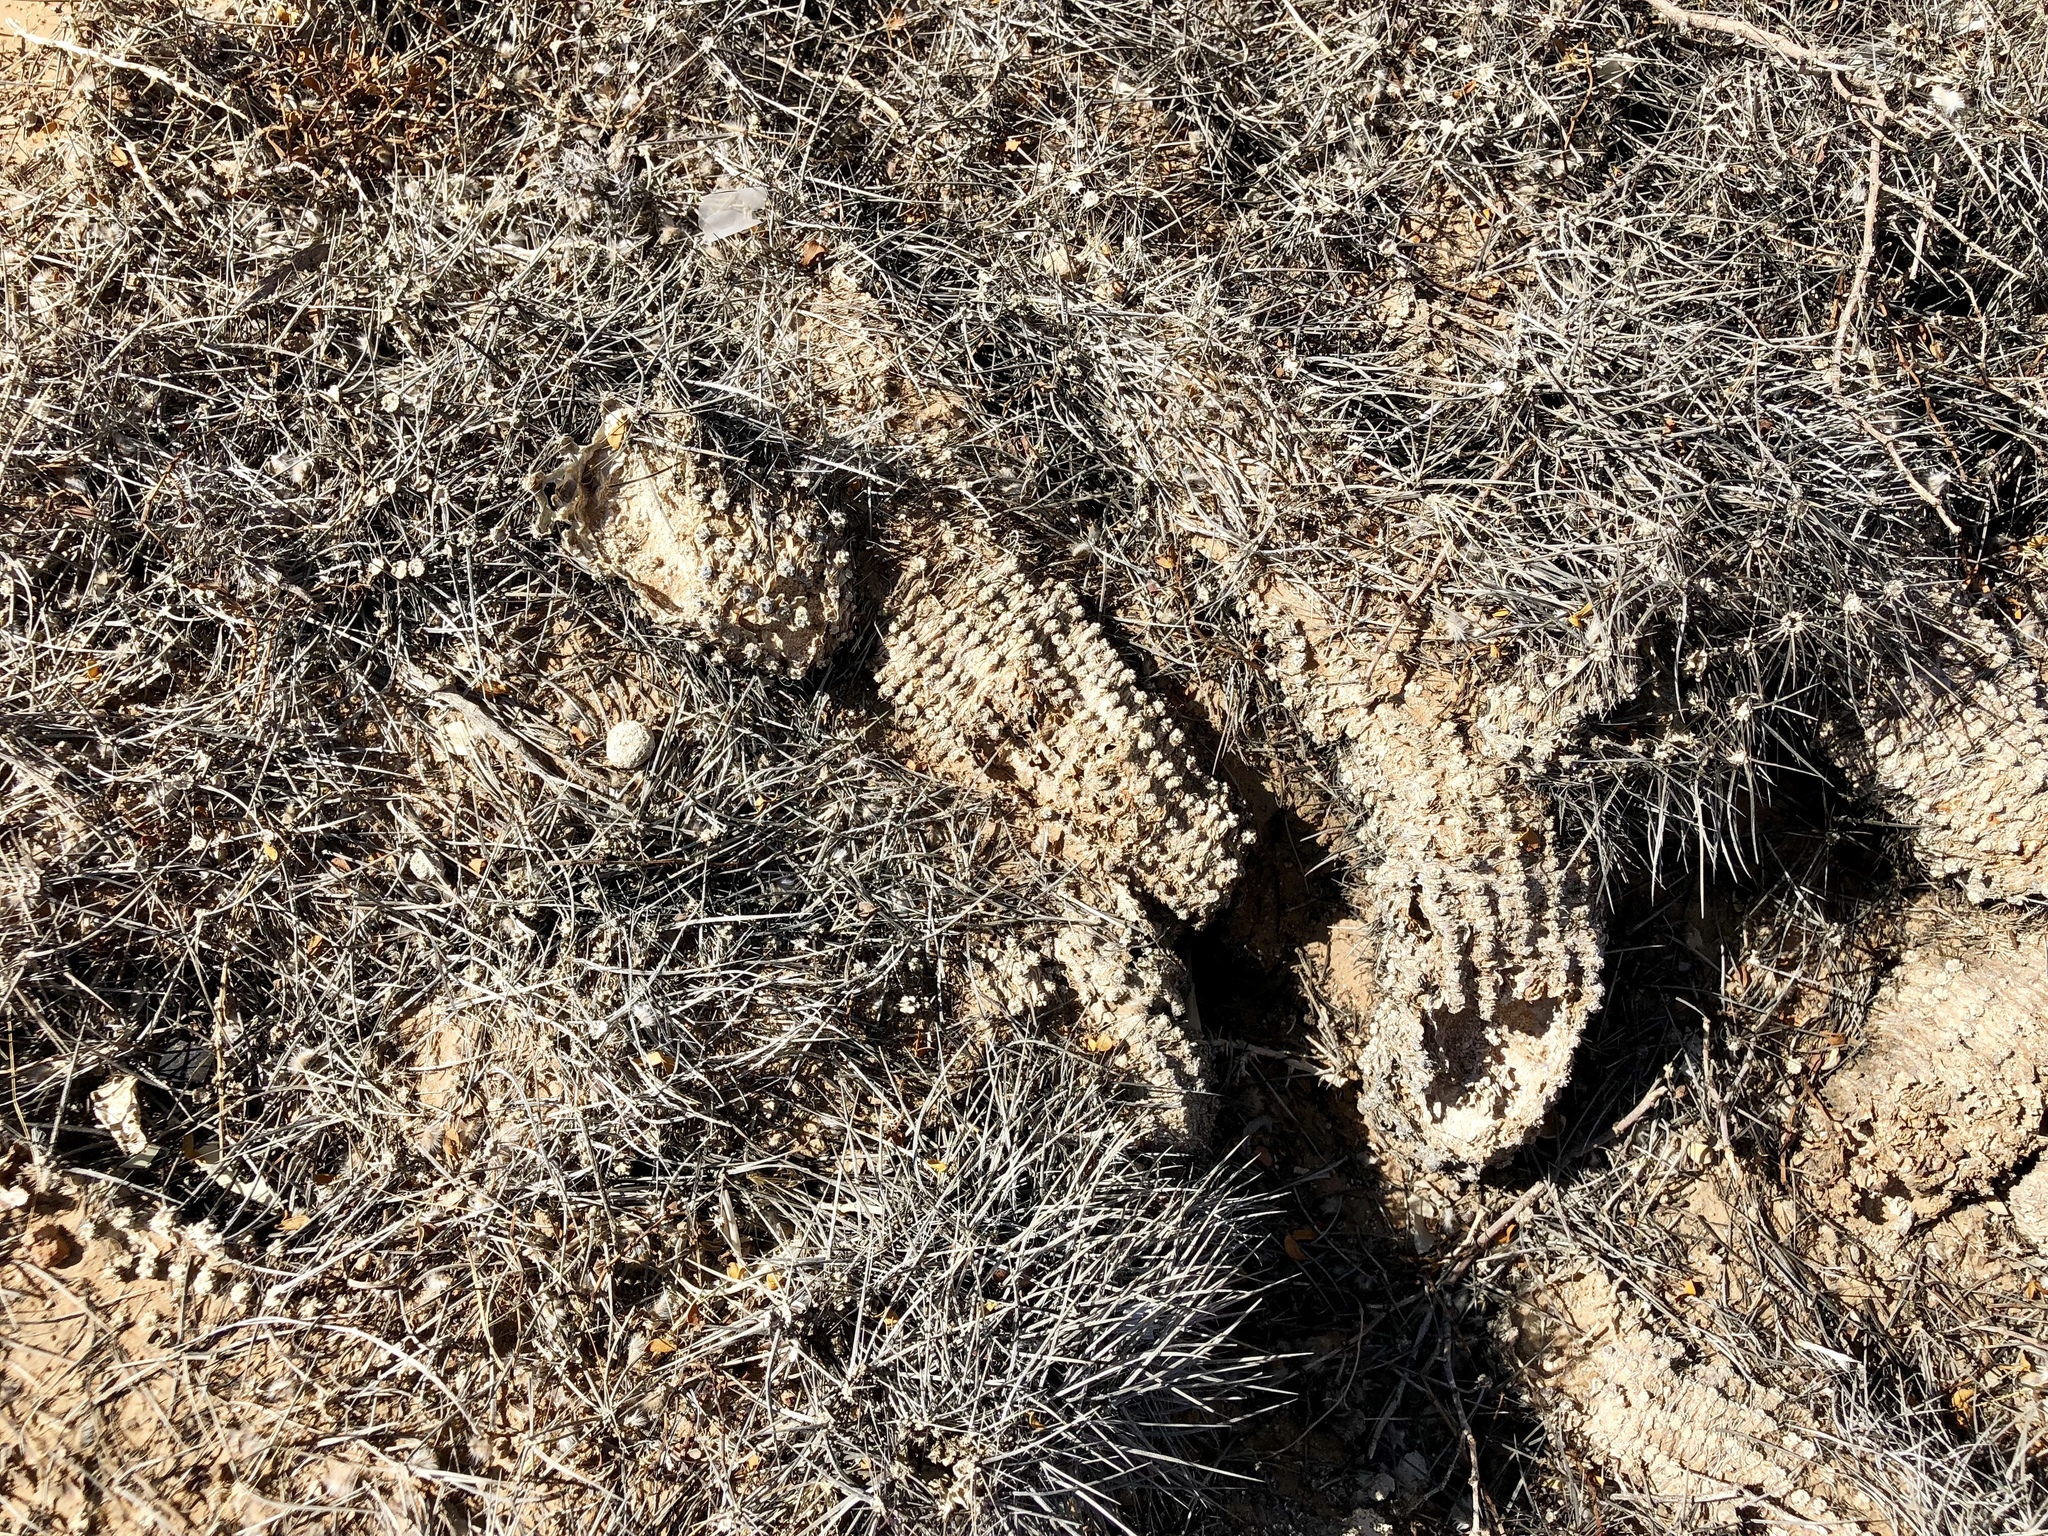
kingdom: Plantae
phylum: Tracheophyta
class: Magnoliopsida
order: Caryophyllales
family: Cactaceae
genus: Echinocereus
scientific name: Echinocereus engelmannii
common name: Engelmann's hedgehog cactus
